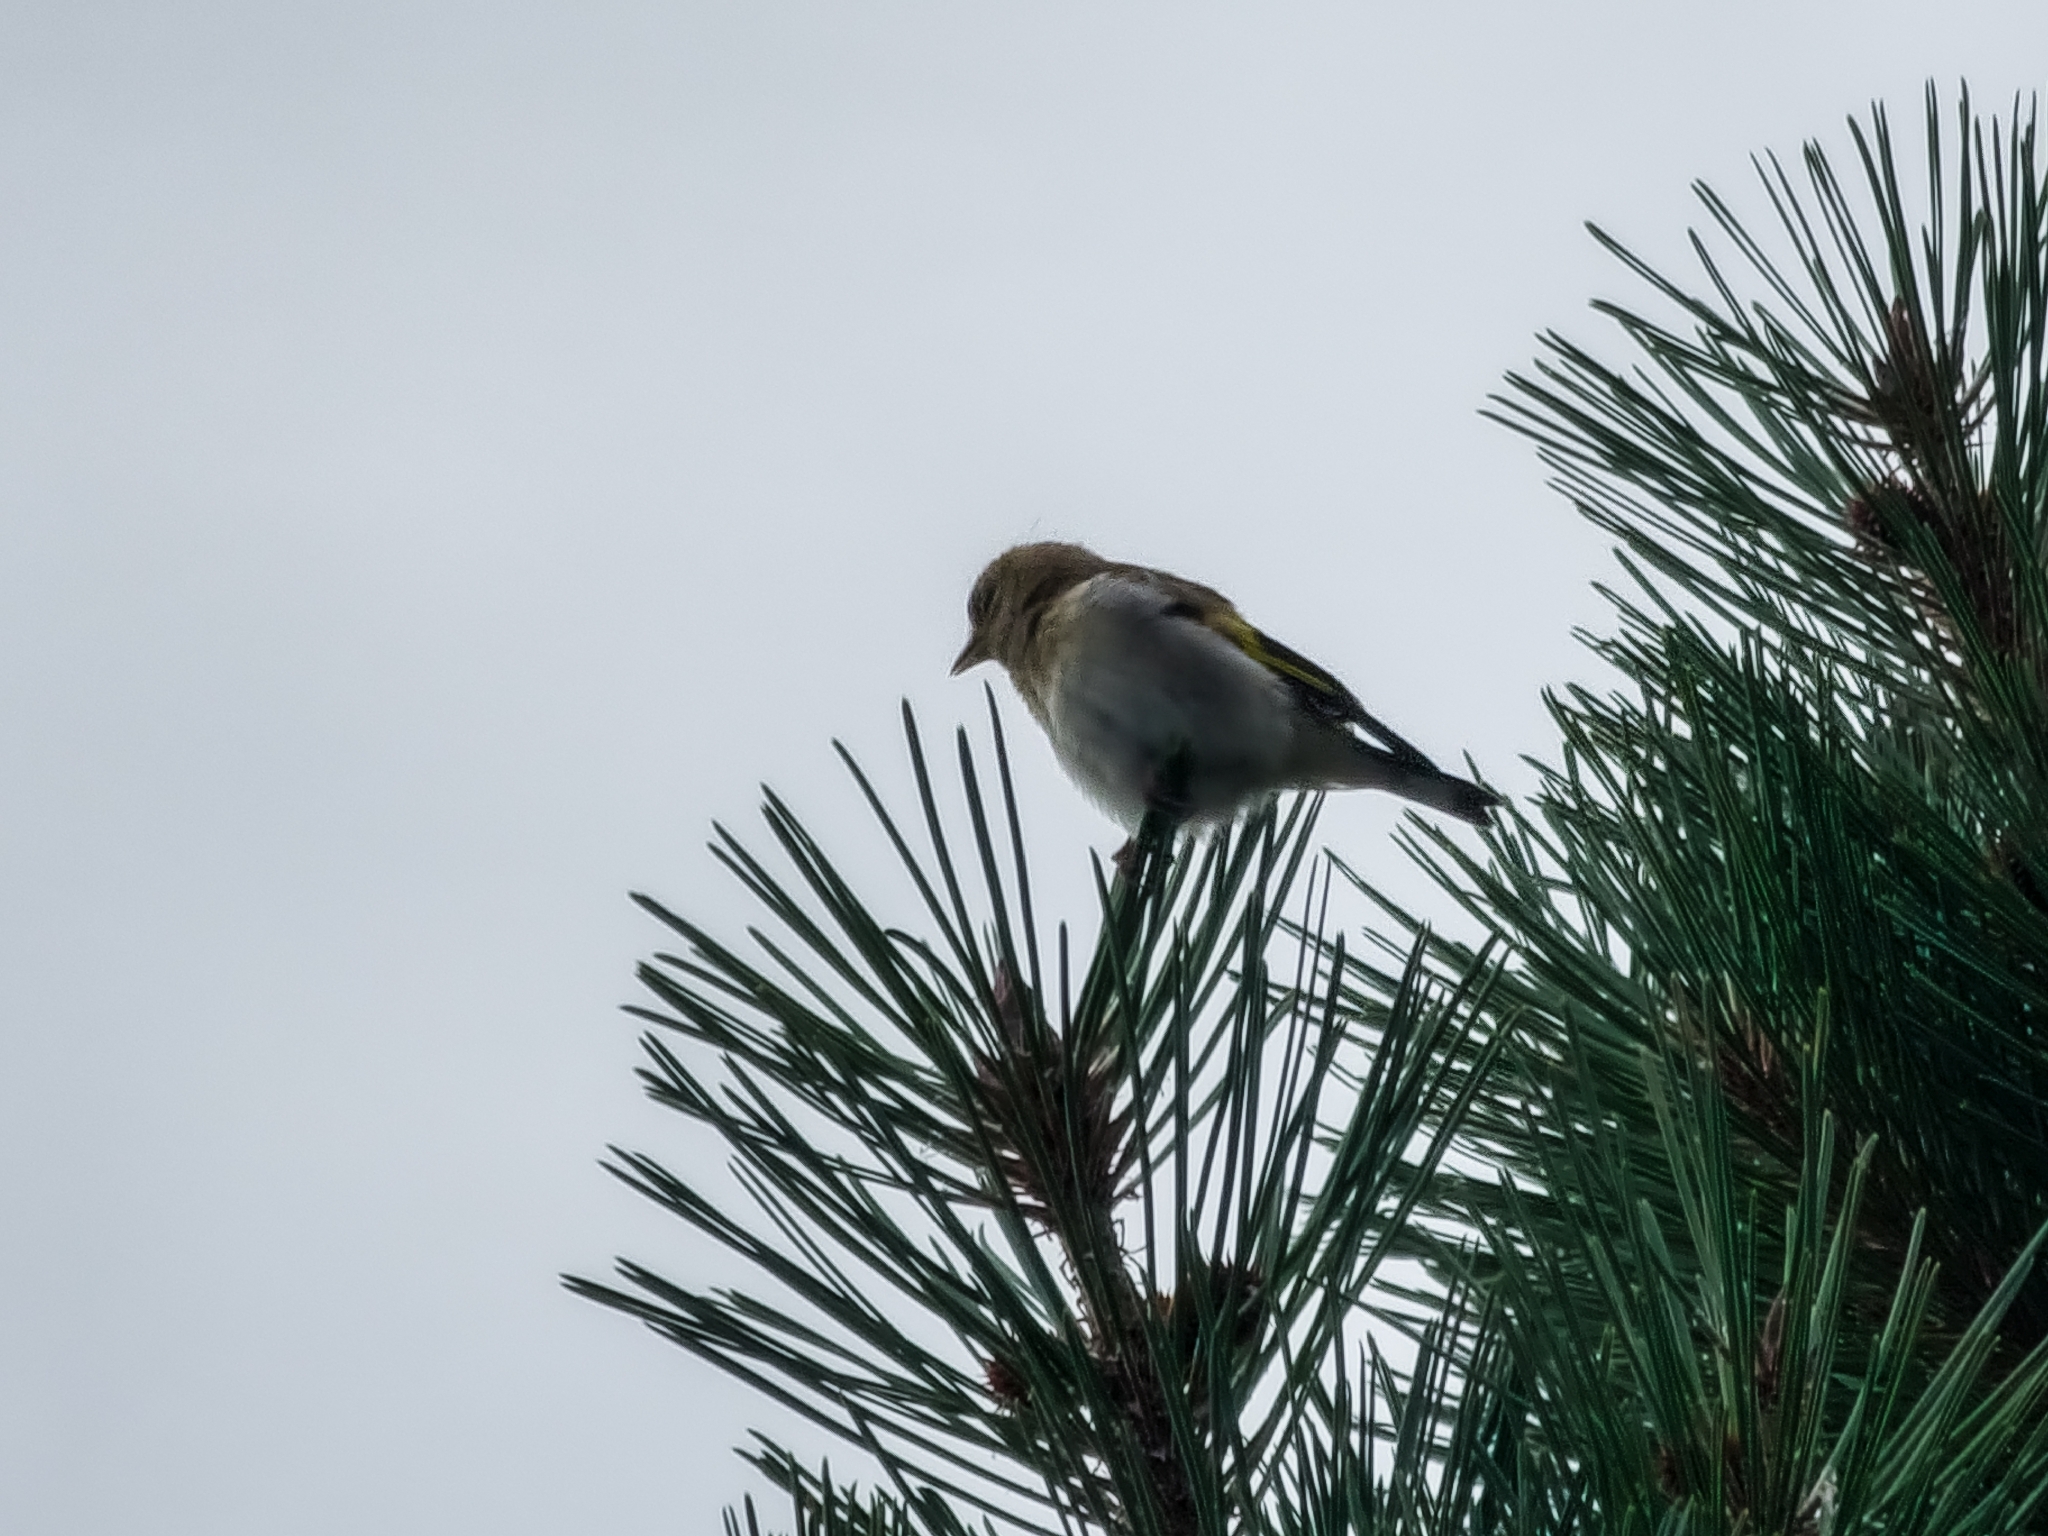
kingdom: Animalia
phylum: Chordata
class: Aves
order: Passeriformes
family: Fringillidae
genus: Carduelis
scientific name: Carduelis carduelis
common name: European goldfinch
